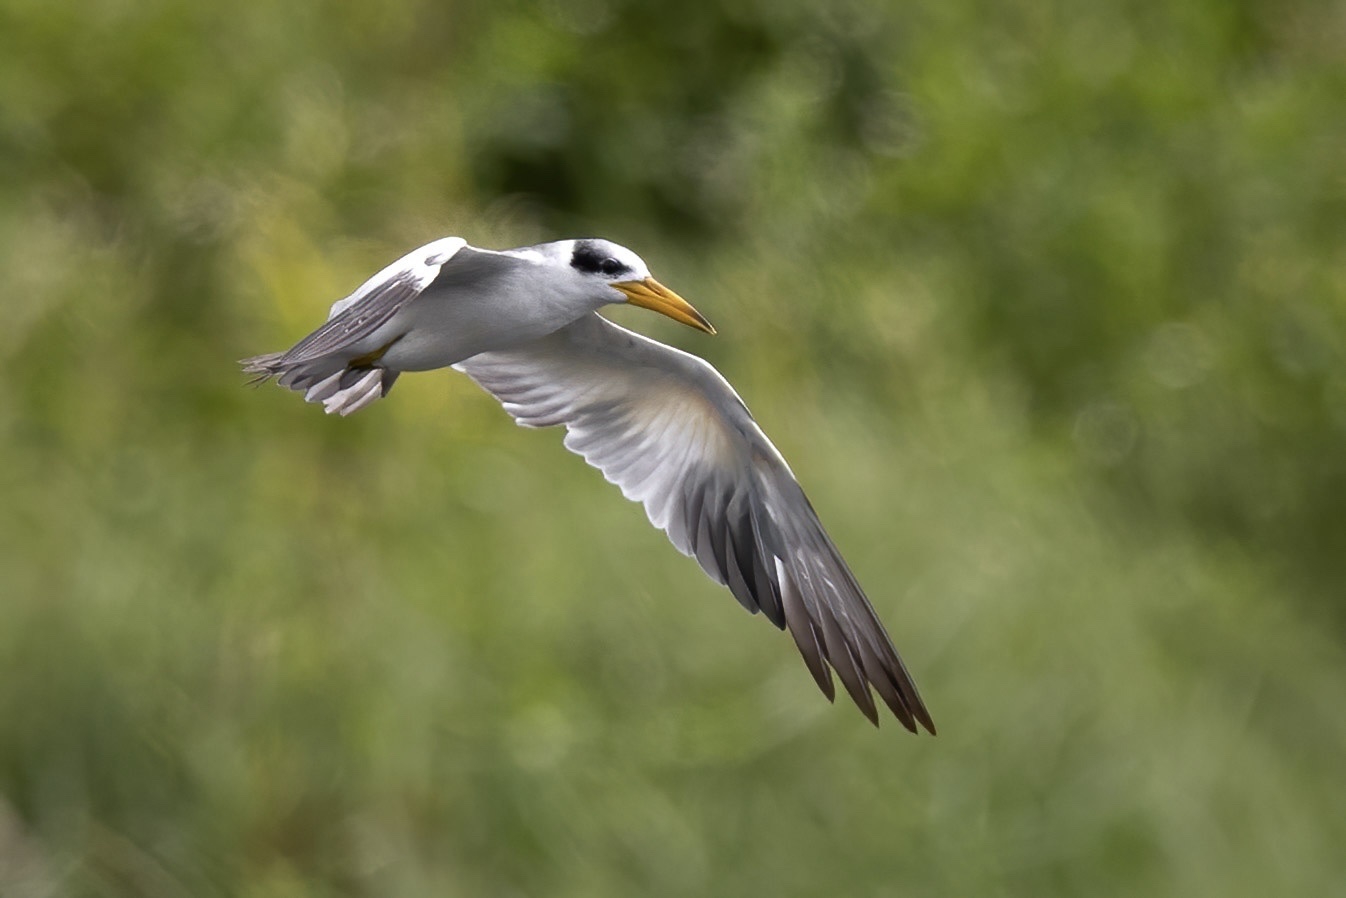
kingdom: Animalia
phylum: Chordata
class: Aves
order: Charadriiformes
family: Laridae
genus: Phaetusa
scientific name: Phaetusa simplex
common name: Large-billed tern
